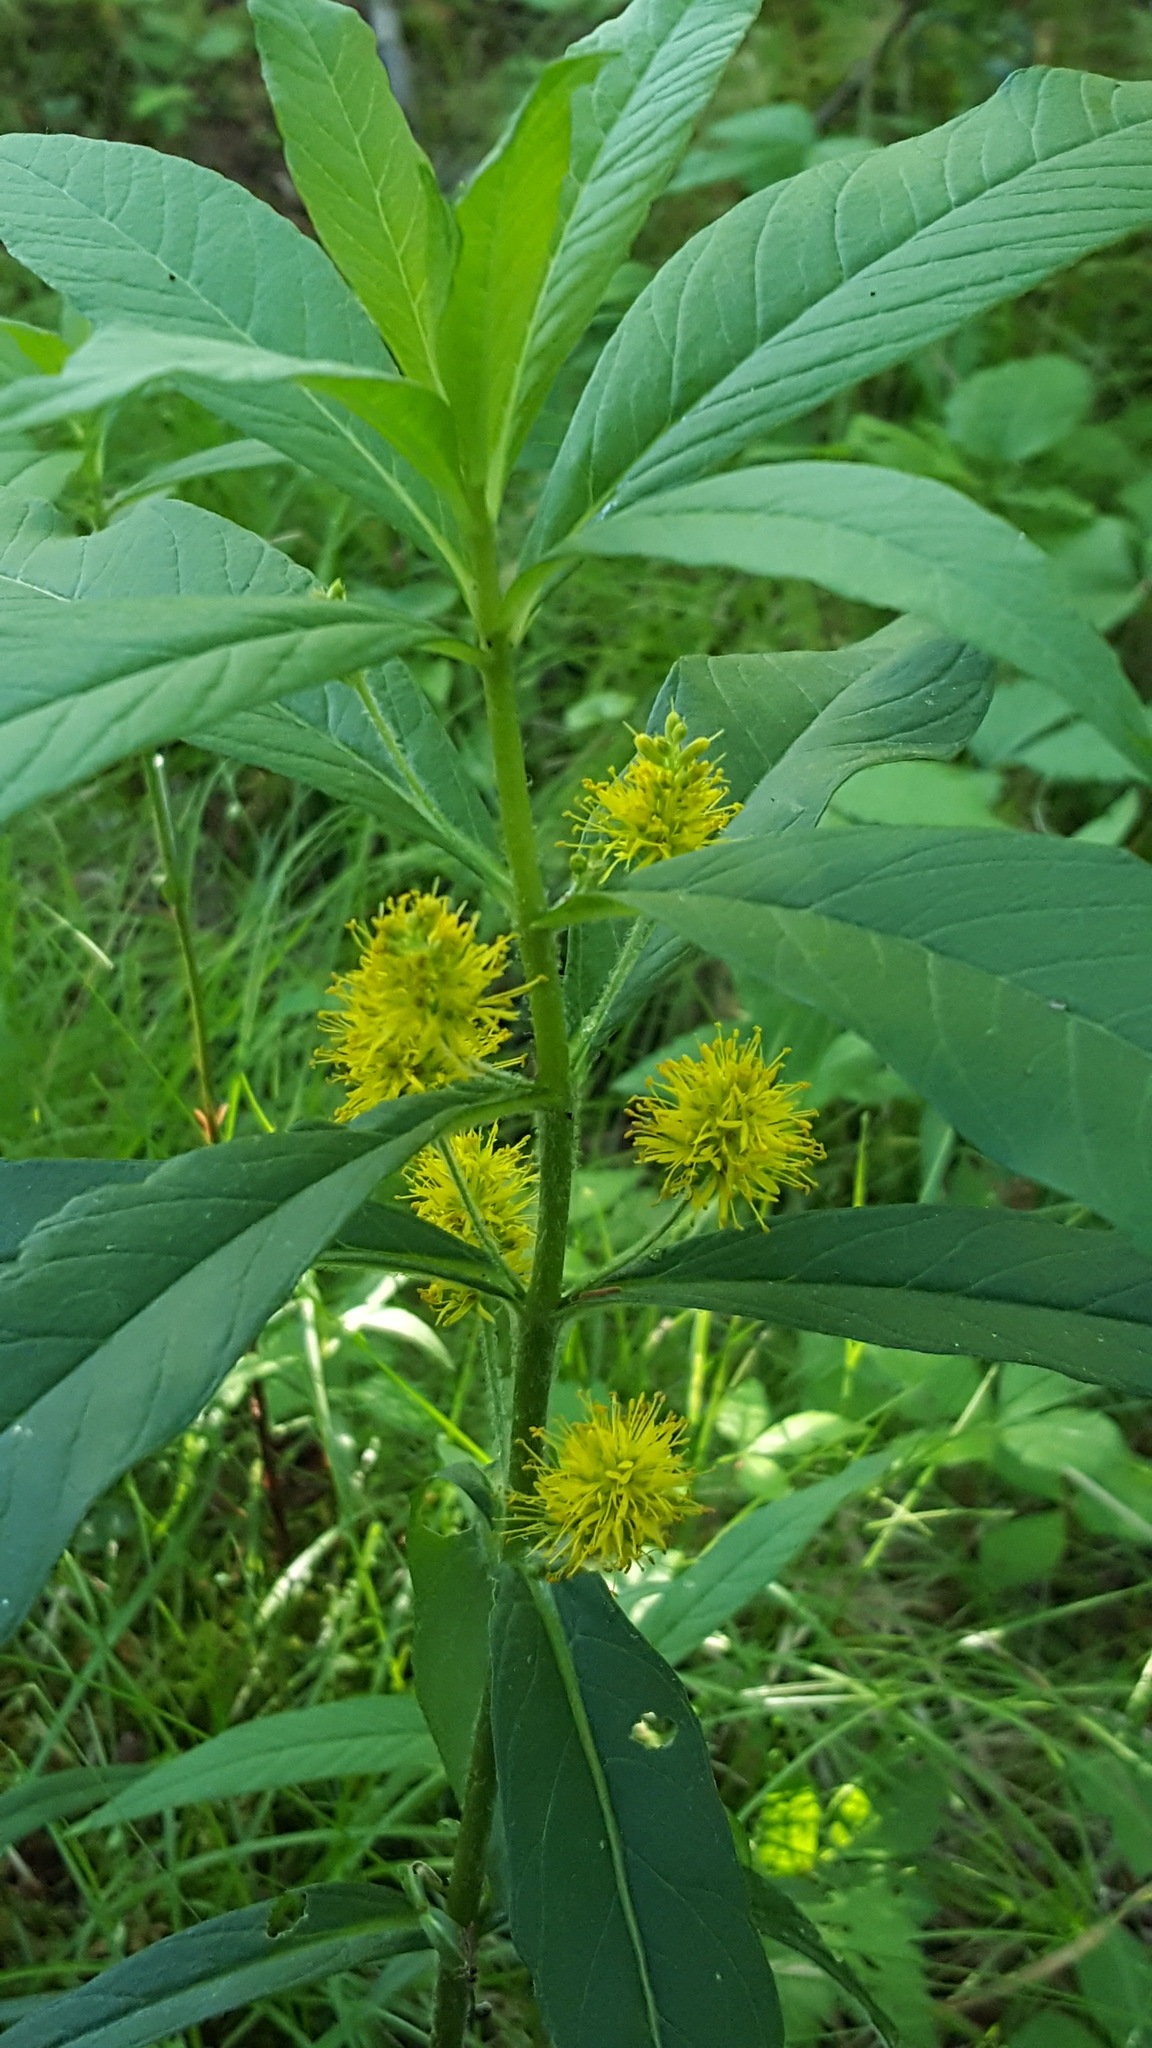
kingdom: Plantae
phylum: Tracheophyta
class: Magnoliopsida
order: Ericales
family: Primulaceae
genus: Lysimachia
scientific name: Lysimachia thyrsiflora
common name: Tufted loosestrife
